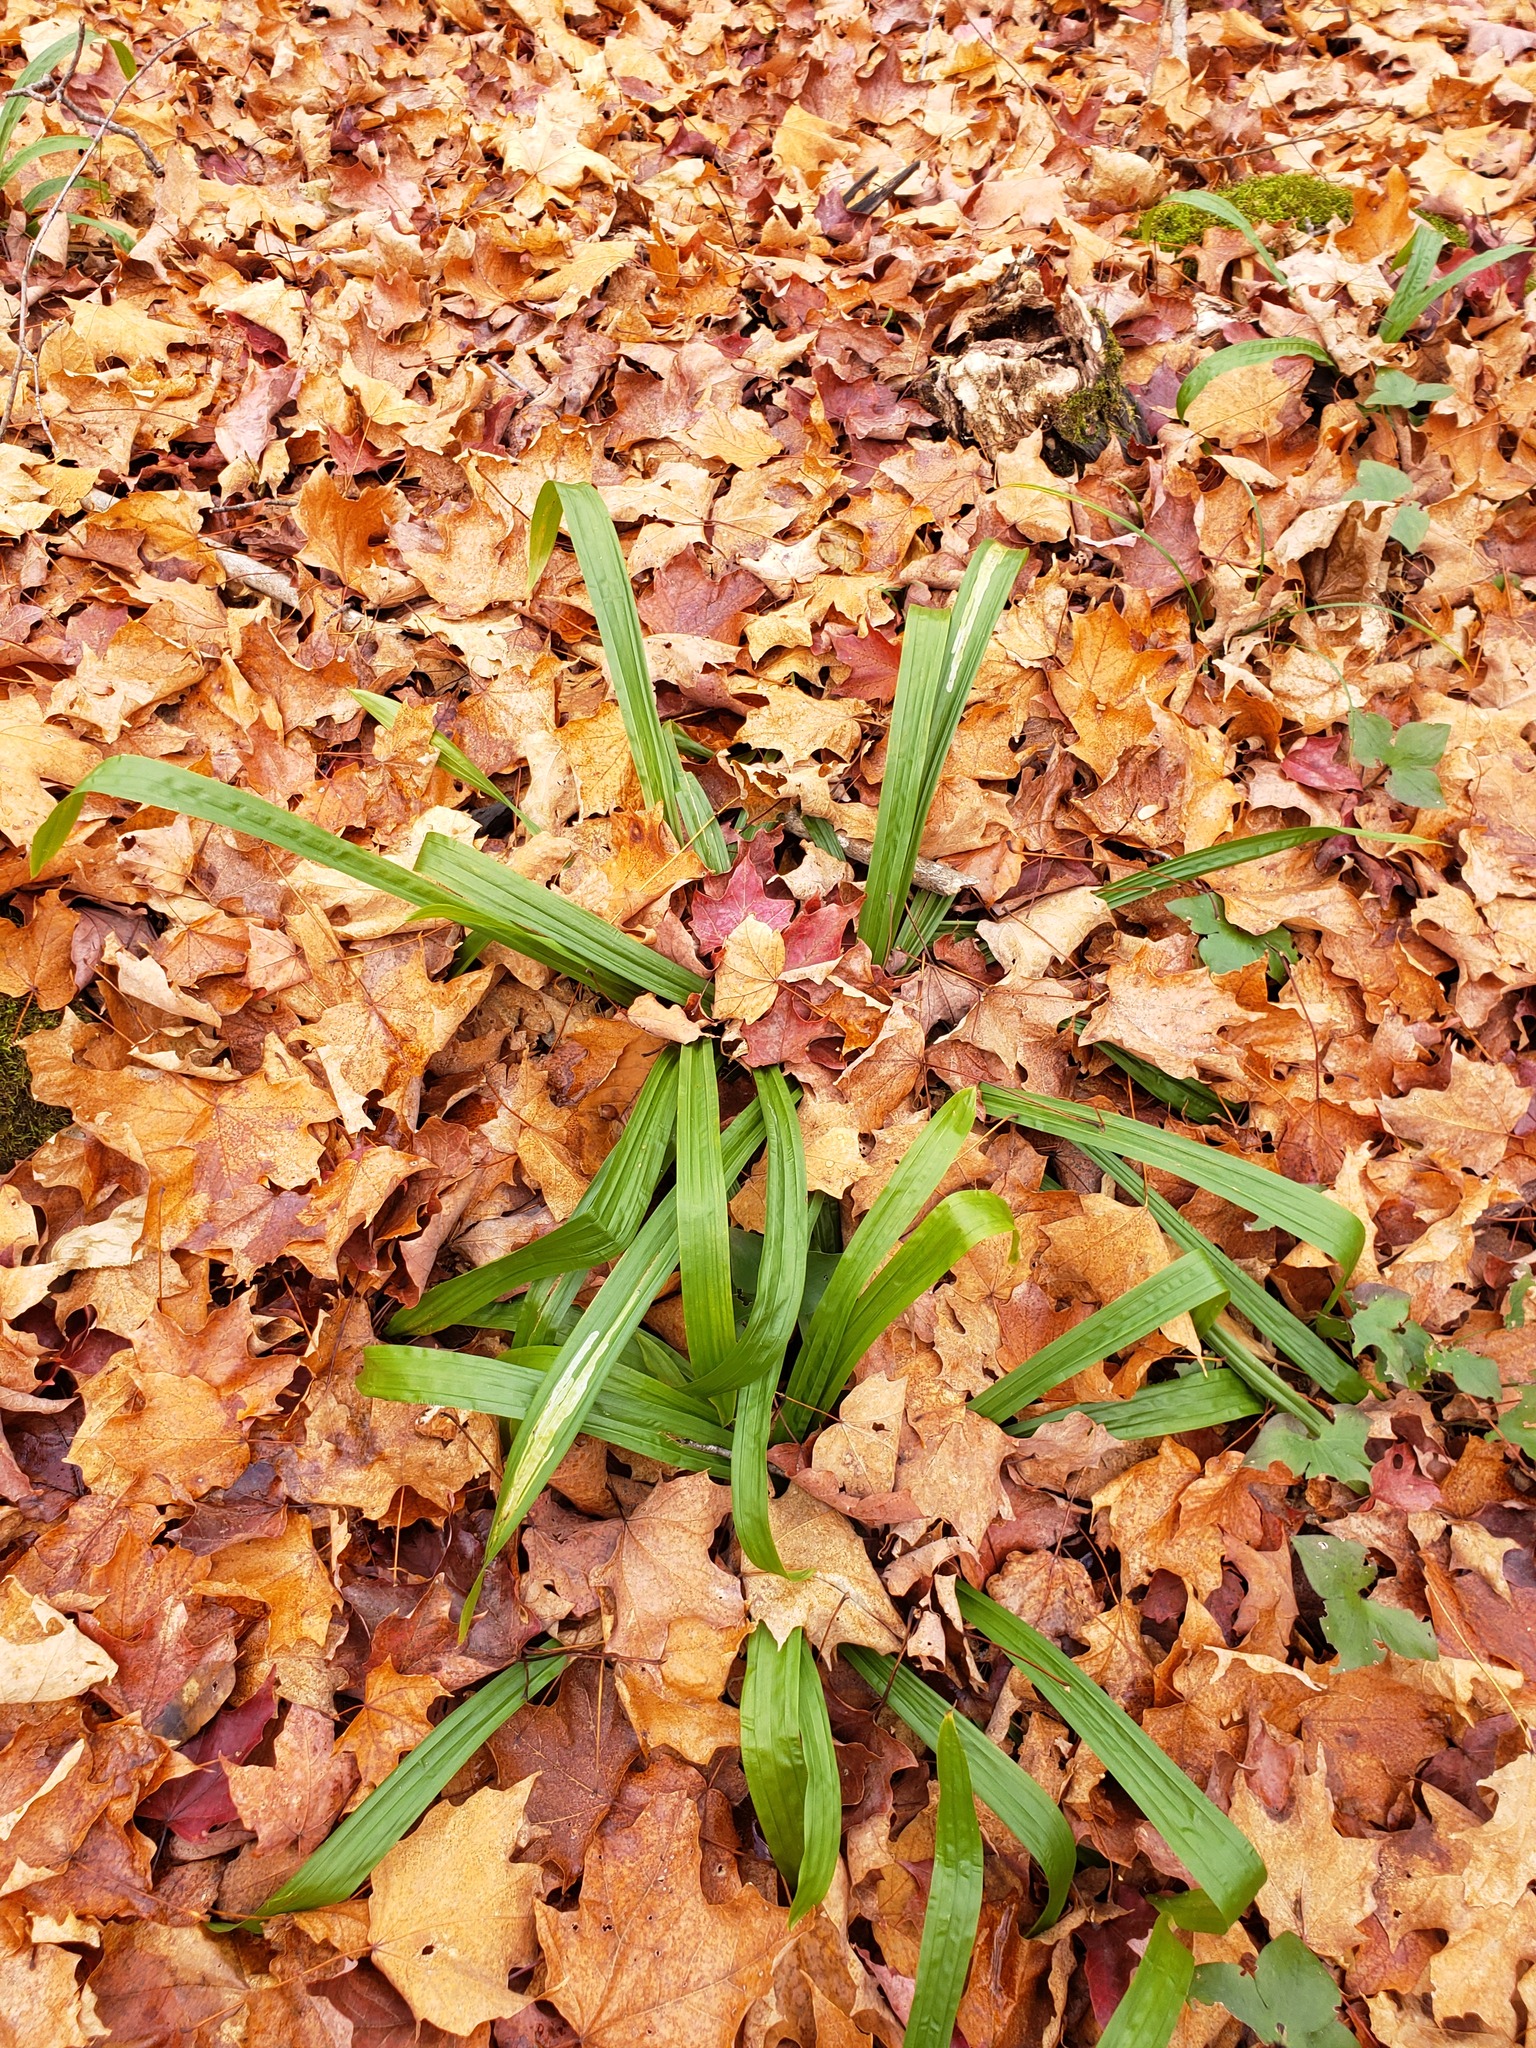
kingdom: Plantae
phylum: Tracheophyta
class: Liliopsida
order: Poales
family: Cyperaceae
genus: Carex
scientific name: Carex plantaginea
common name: Plantain-leaved sedge
